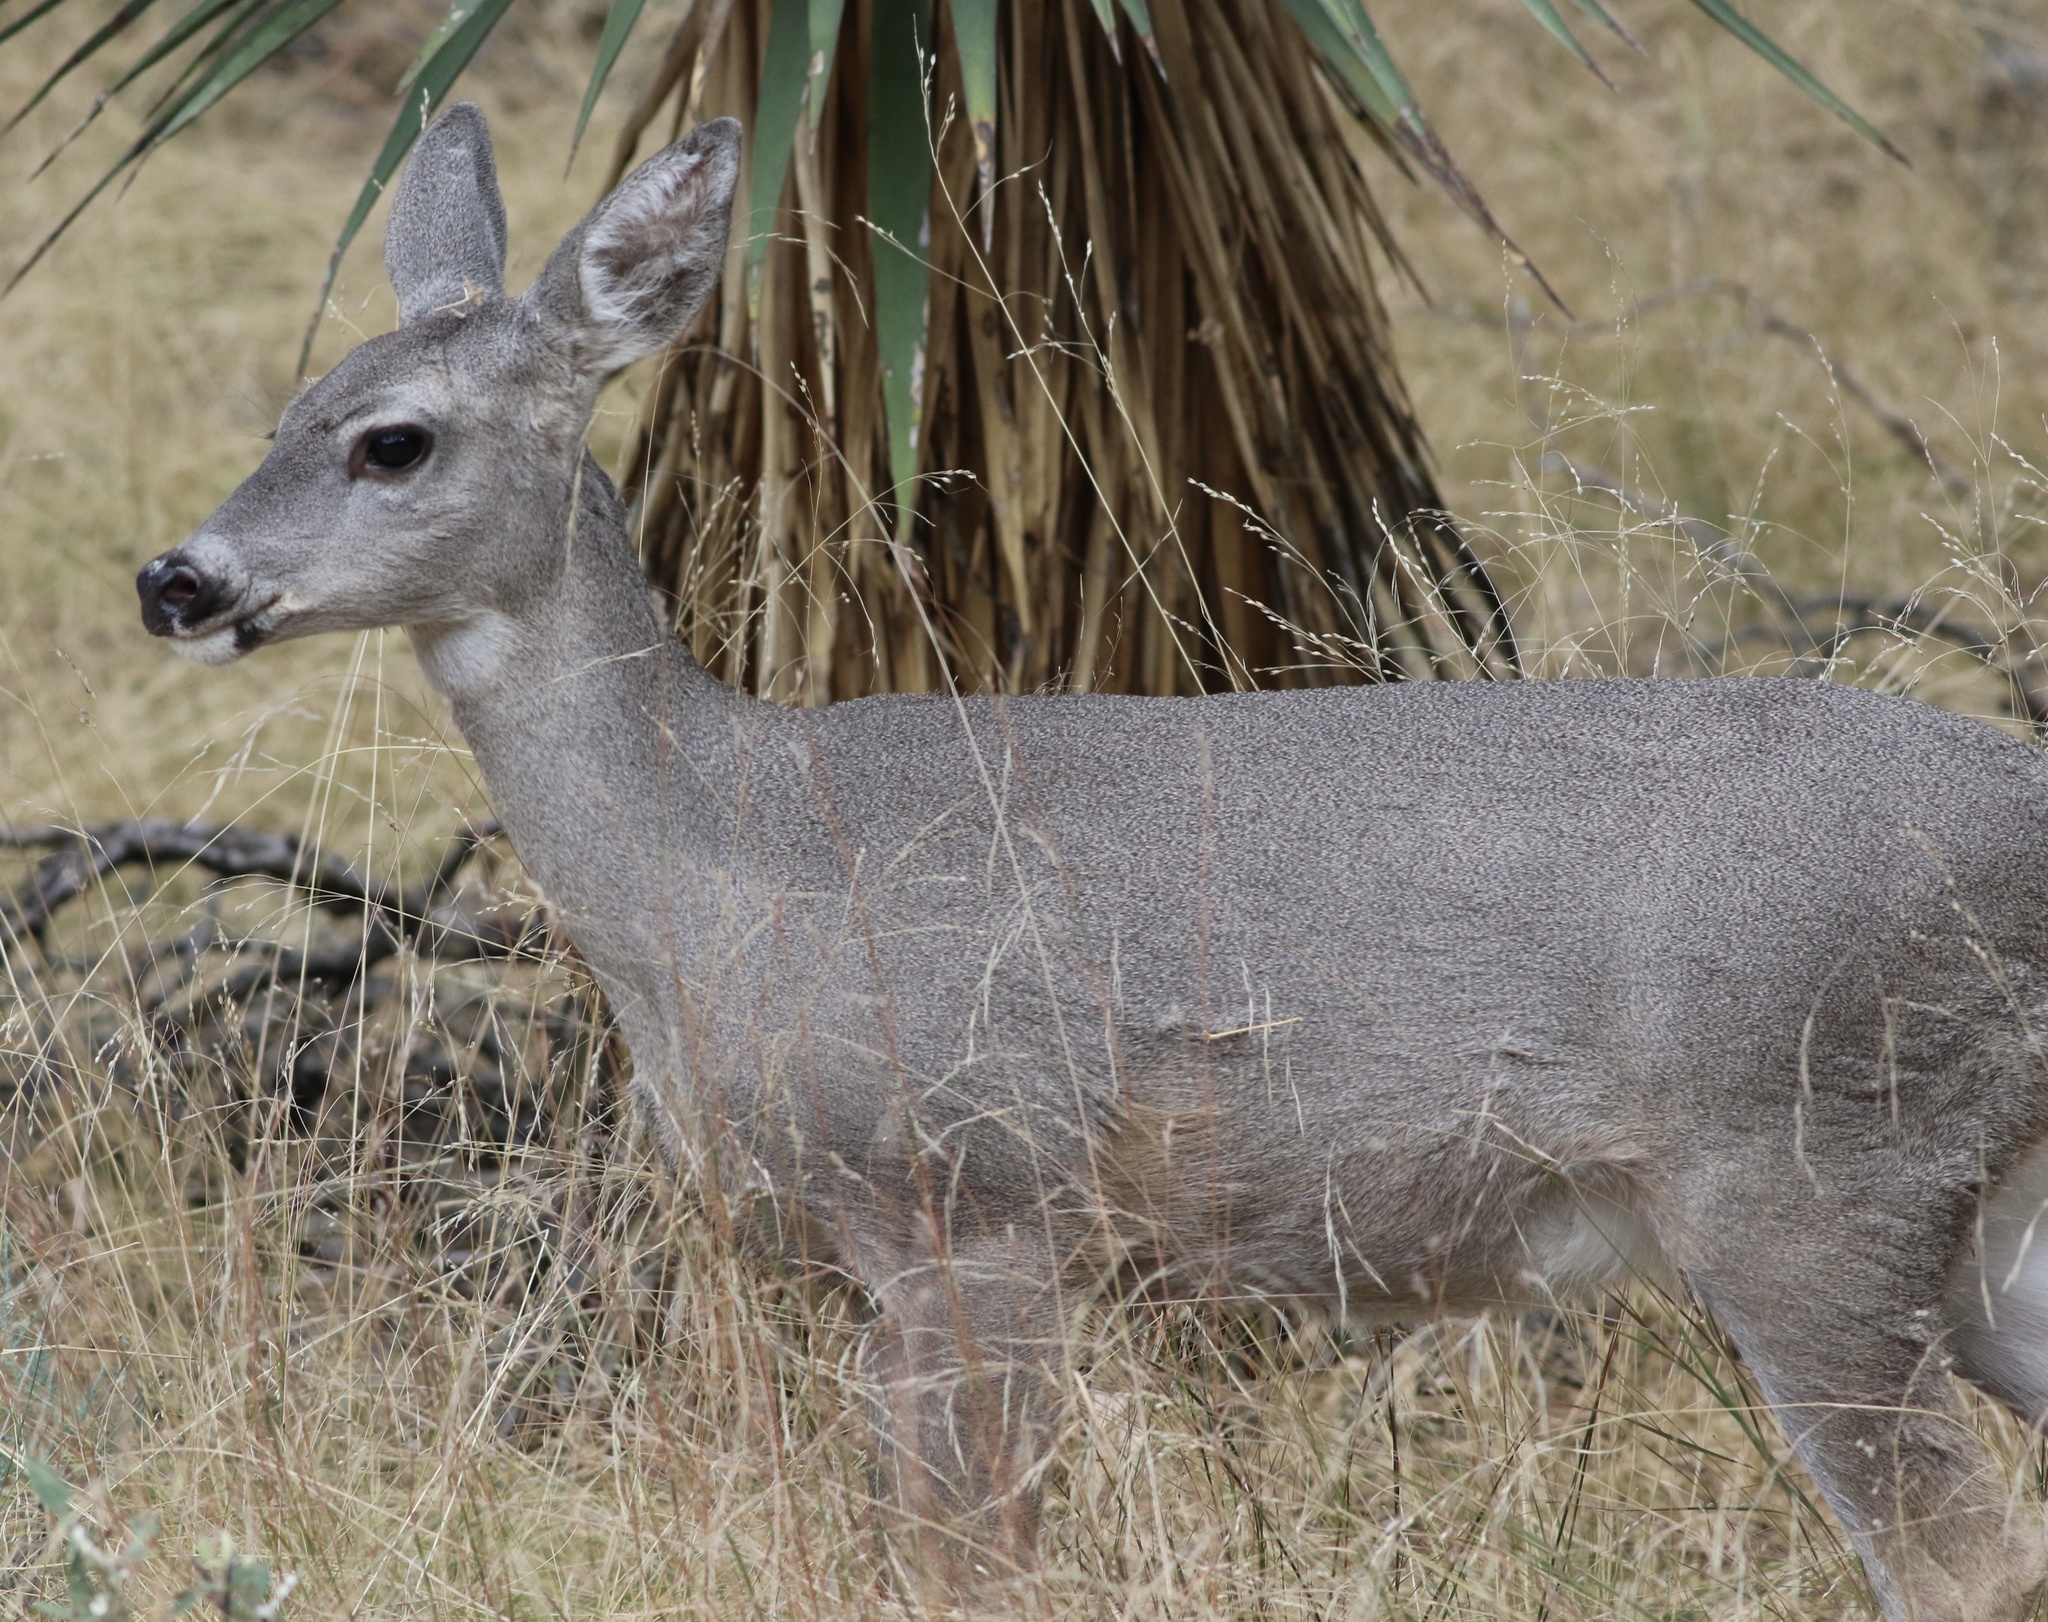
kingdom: Animalia
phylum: Chordata
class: Mammalia
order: Artiodactyla
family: Cervidae
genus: Odocoileus
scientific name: Odocoileus virginianus
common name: White-tailed deer
